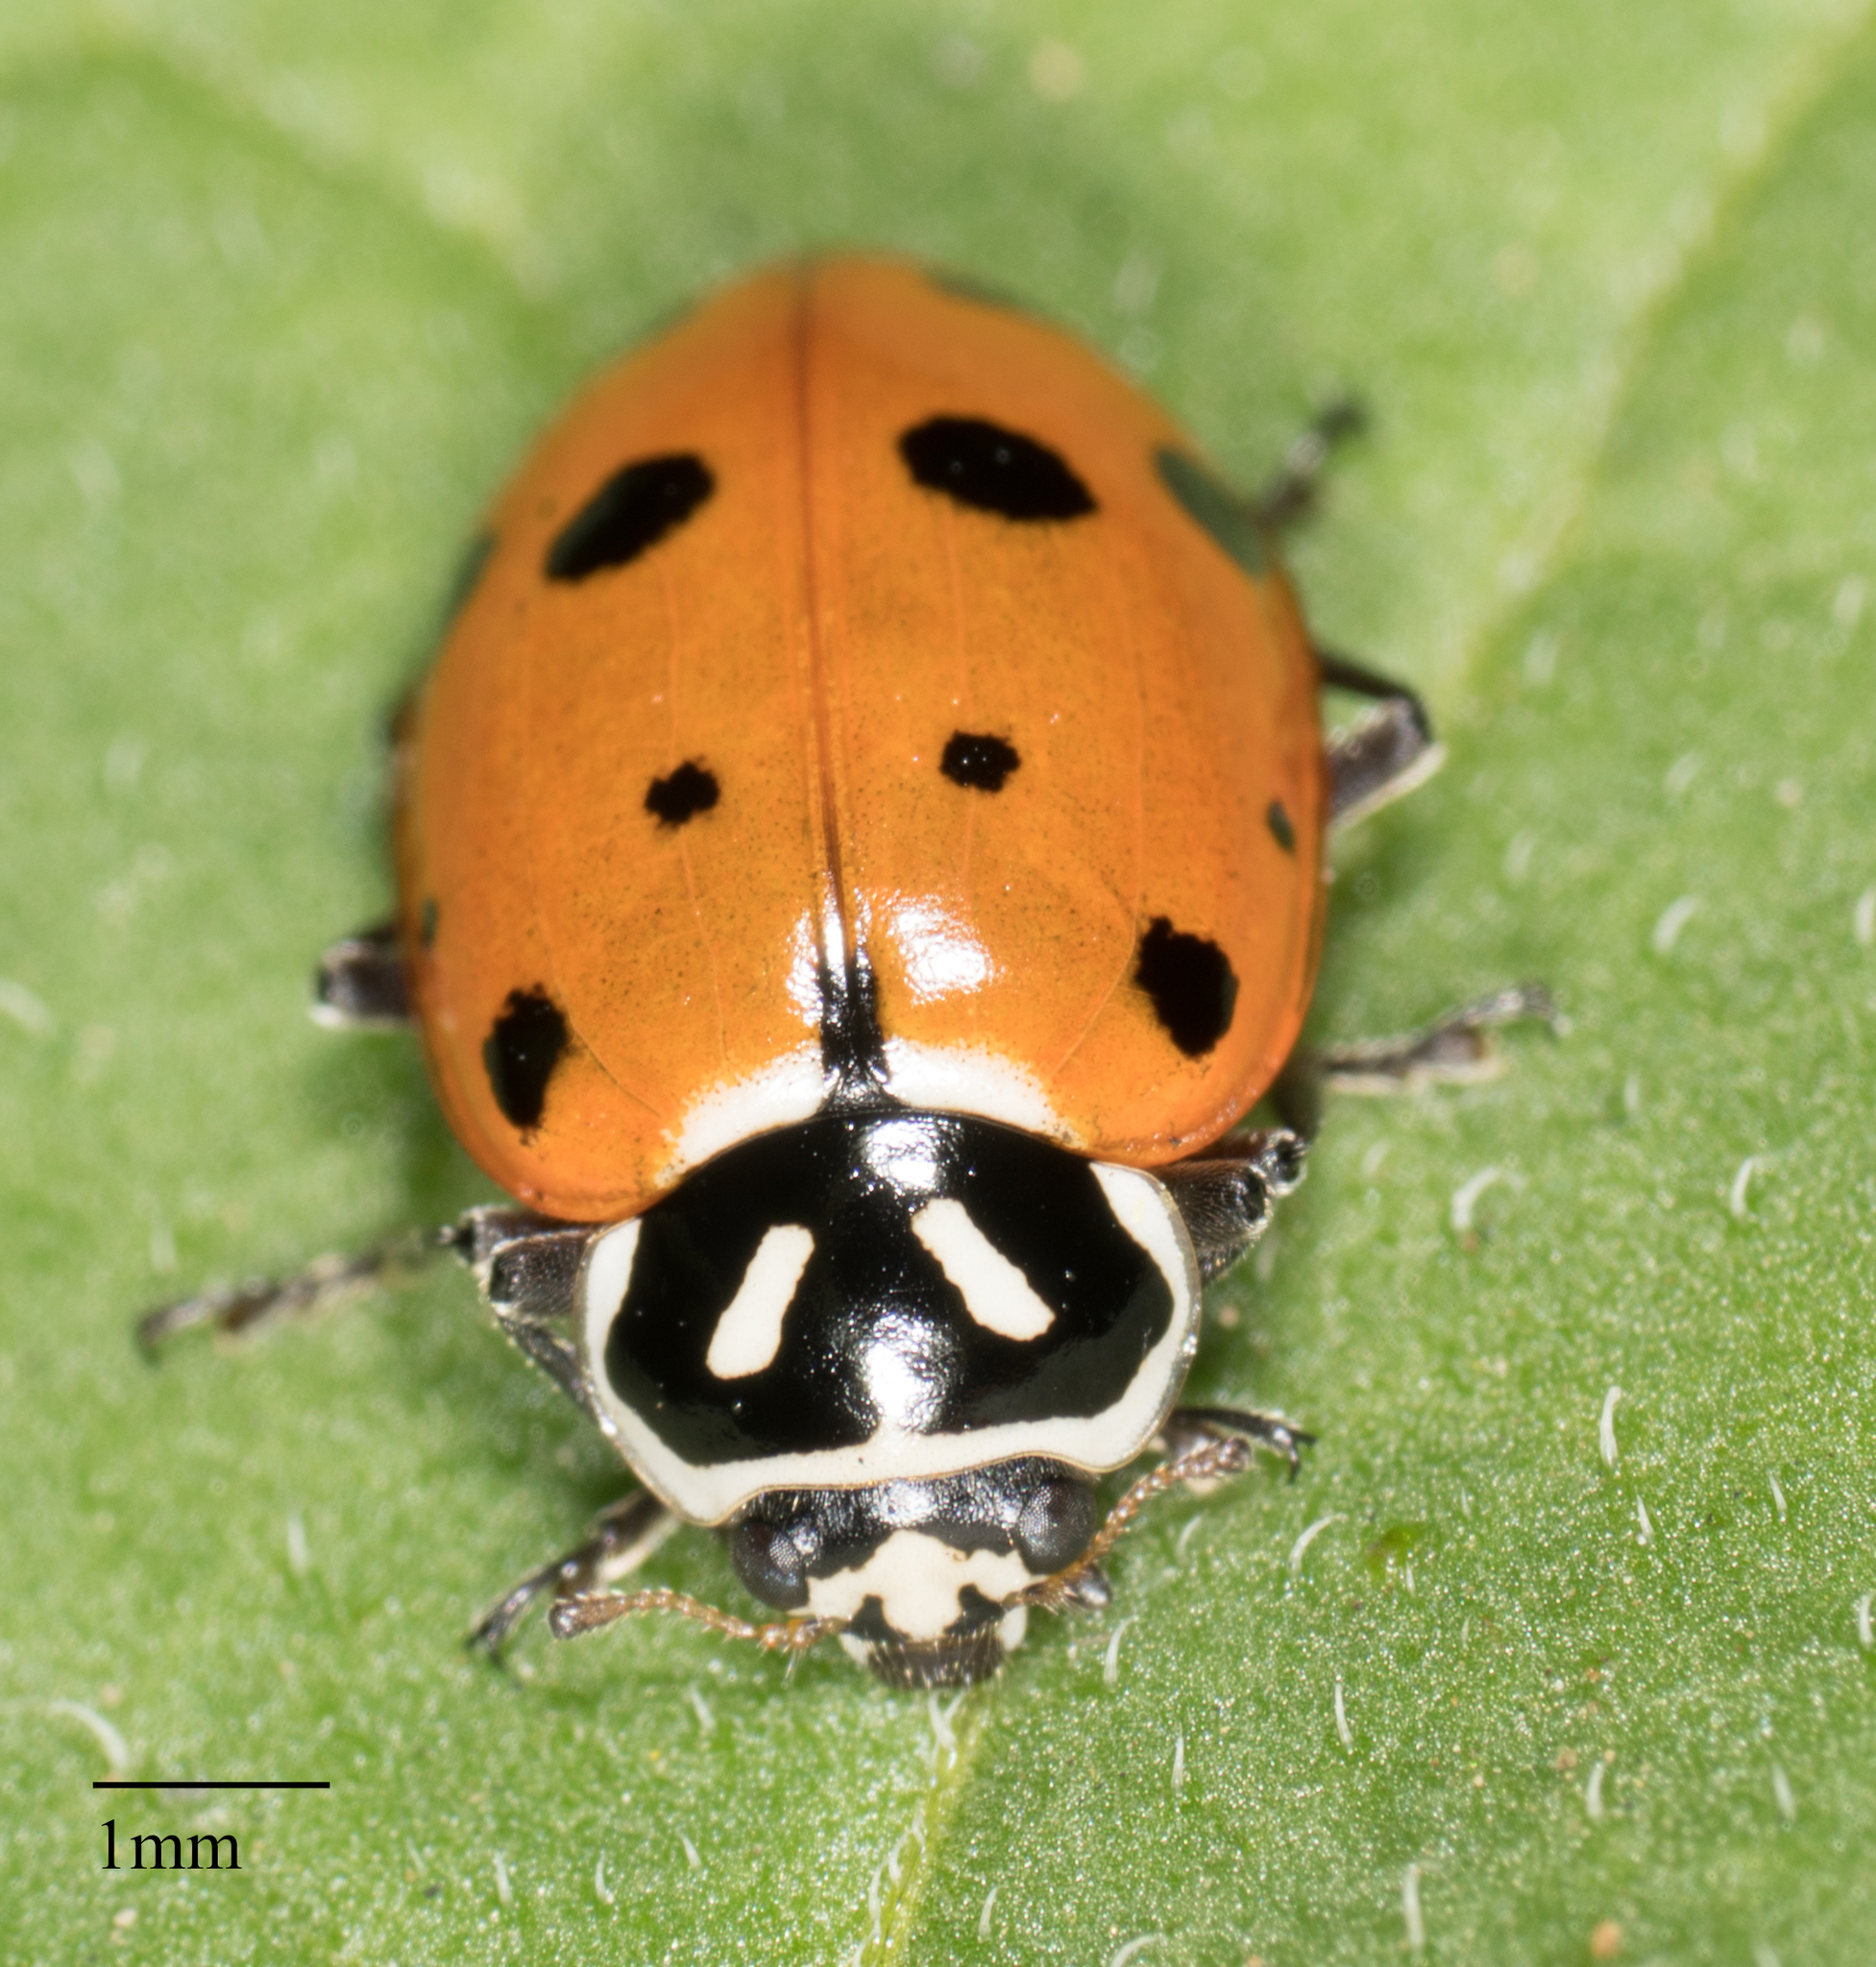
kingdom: Animalia
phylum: Arthropoda
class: Insecta
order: Coleoptera
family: Coccinellidae
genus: Hippodamia
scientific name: Hippodamia convergens
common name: Convergent lady beetle
